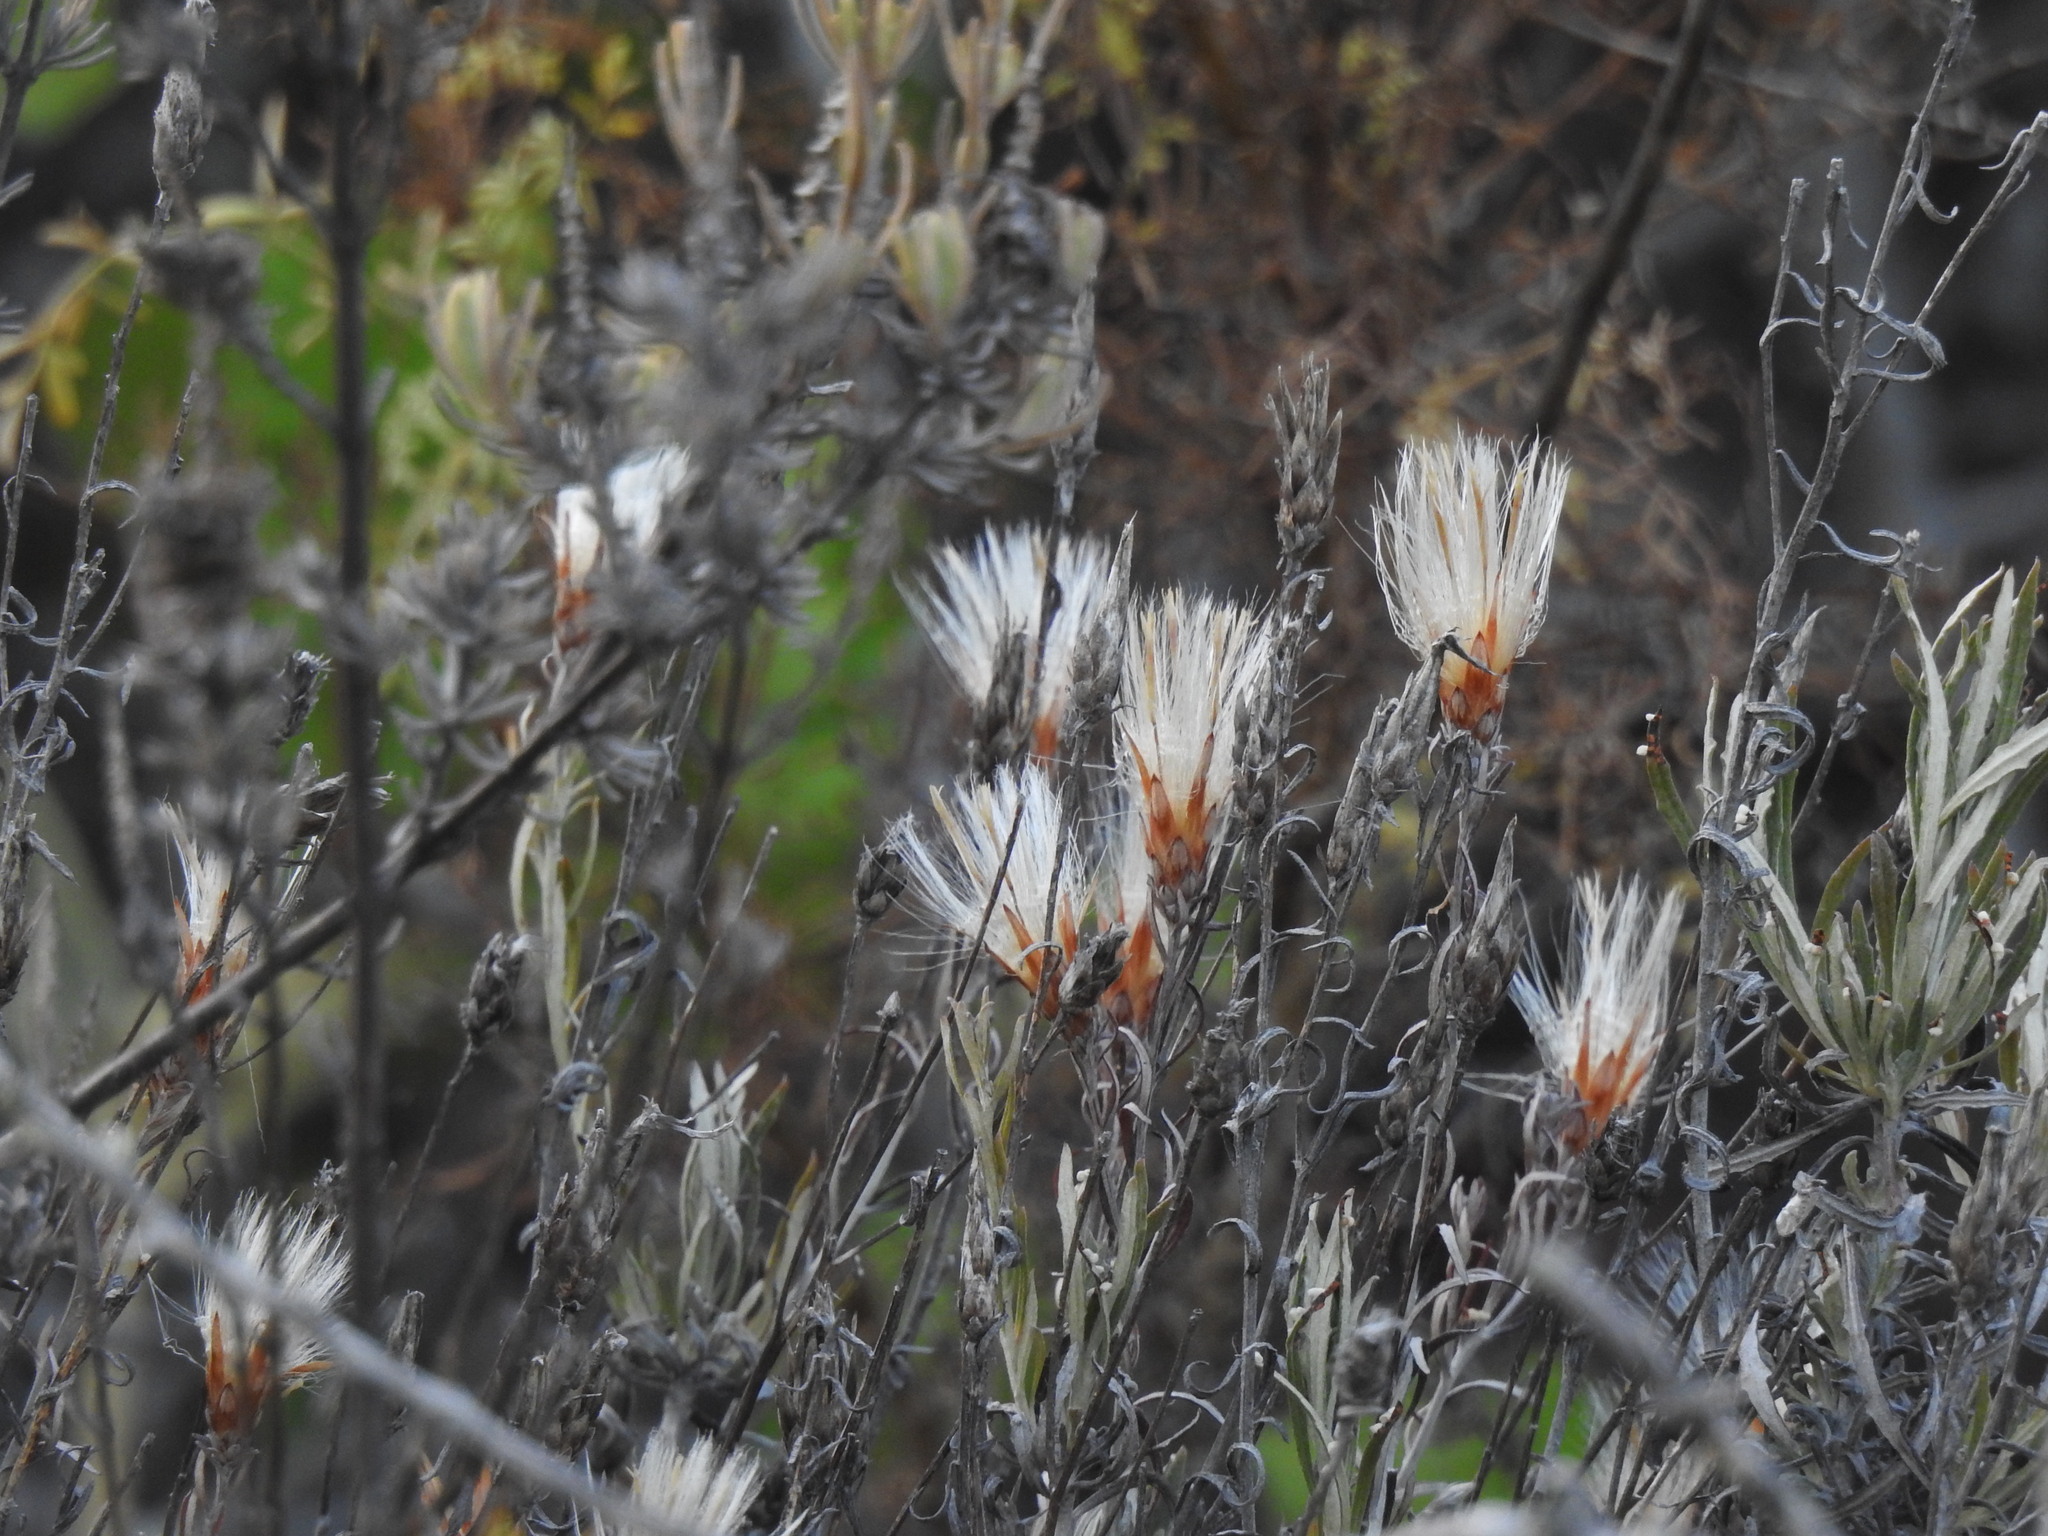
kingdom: Plantae
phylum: Tracheophyta
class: Magnoliopsida
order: Asterales
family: Asteraceae
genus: Staehelina
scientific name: Staehelina dubia
